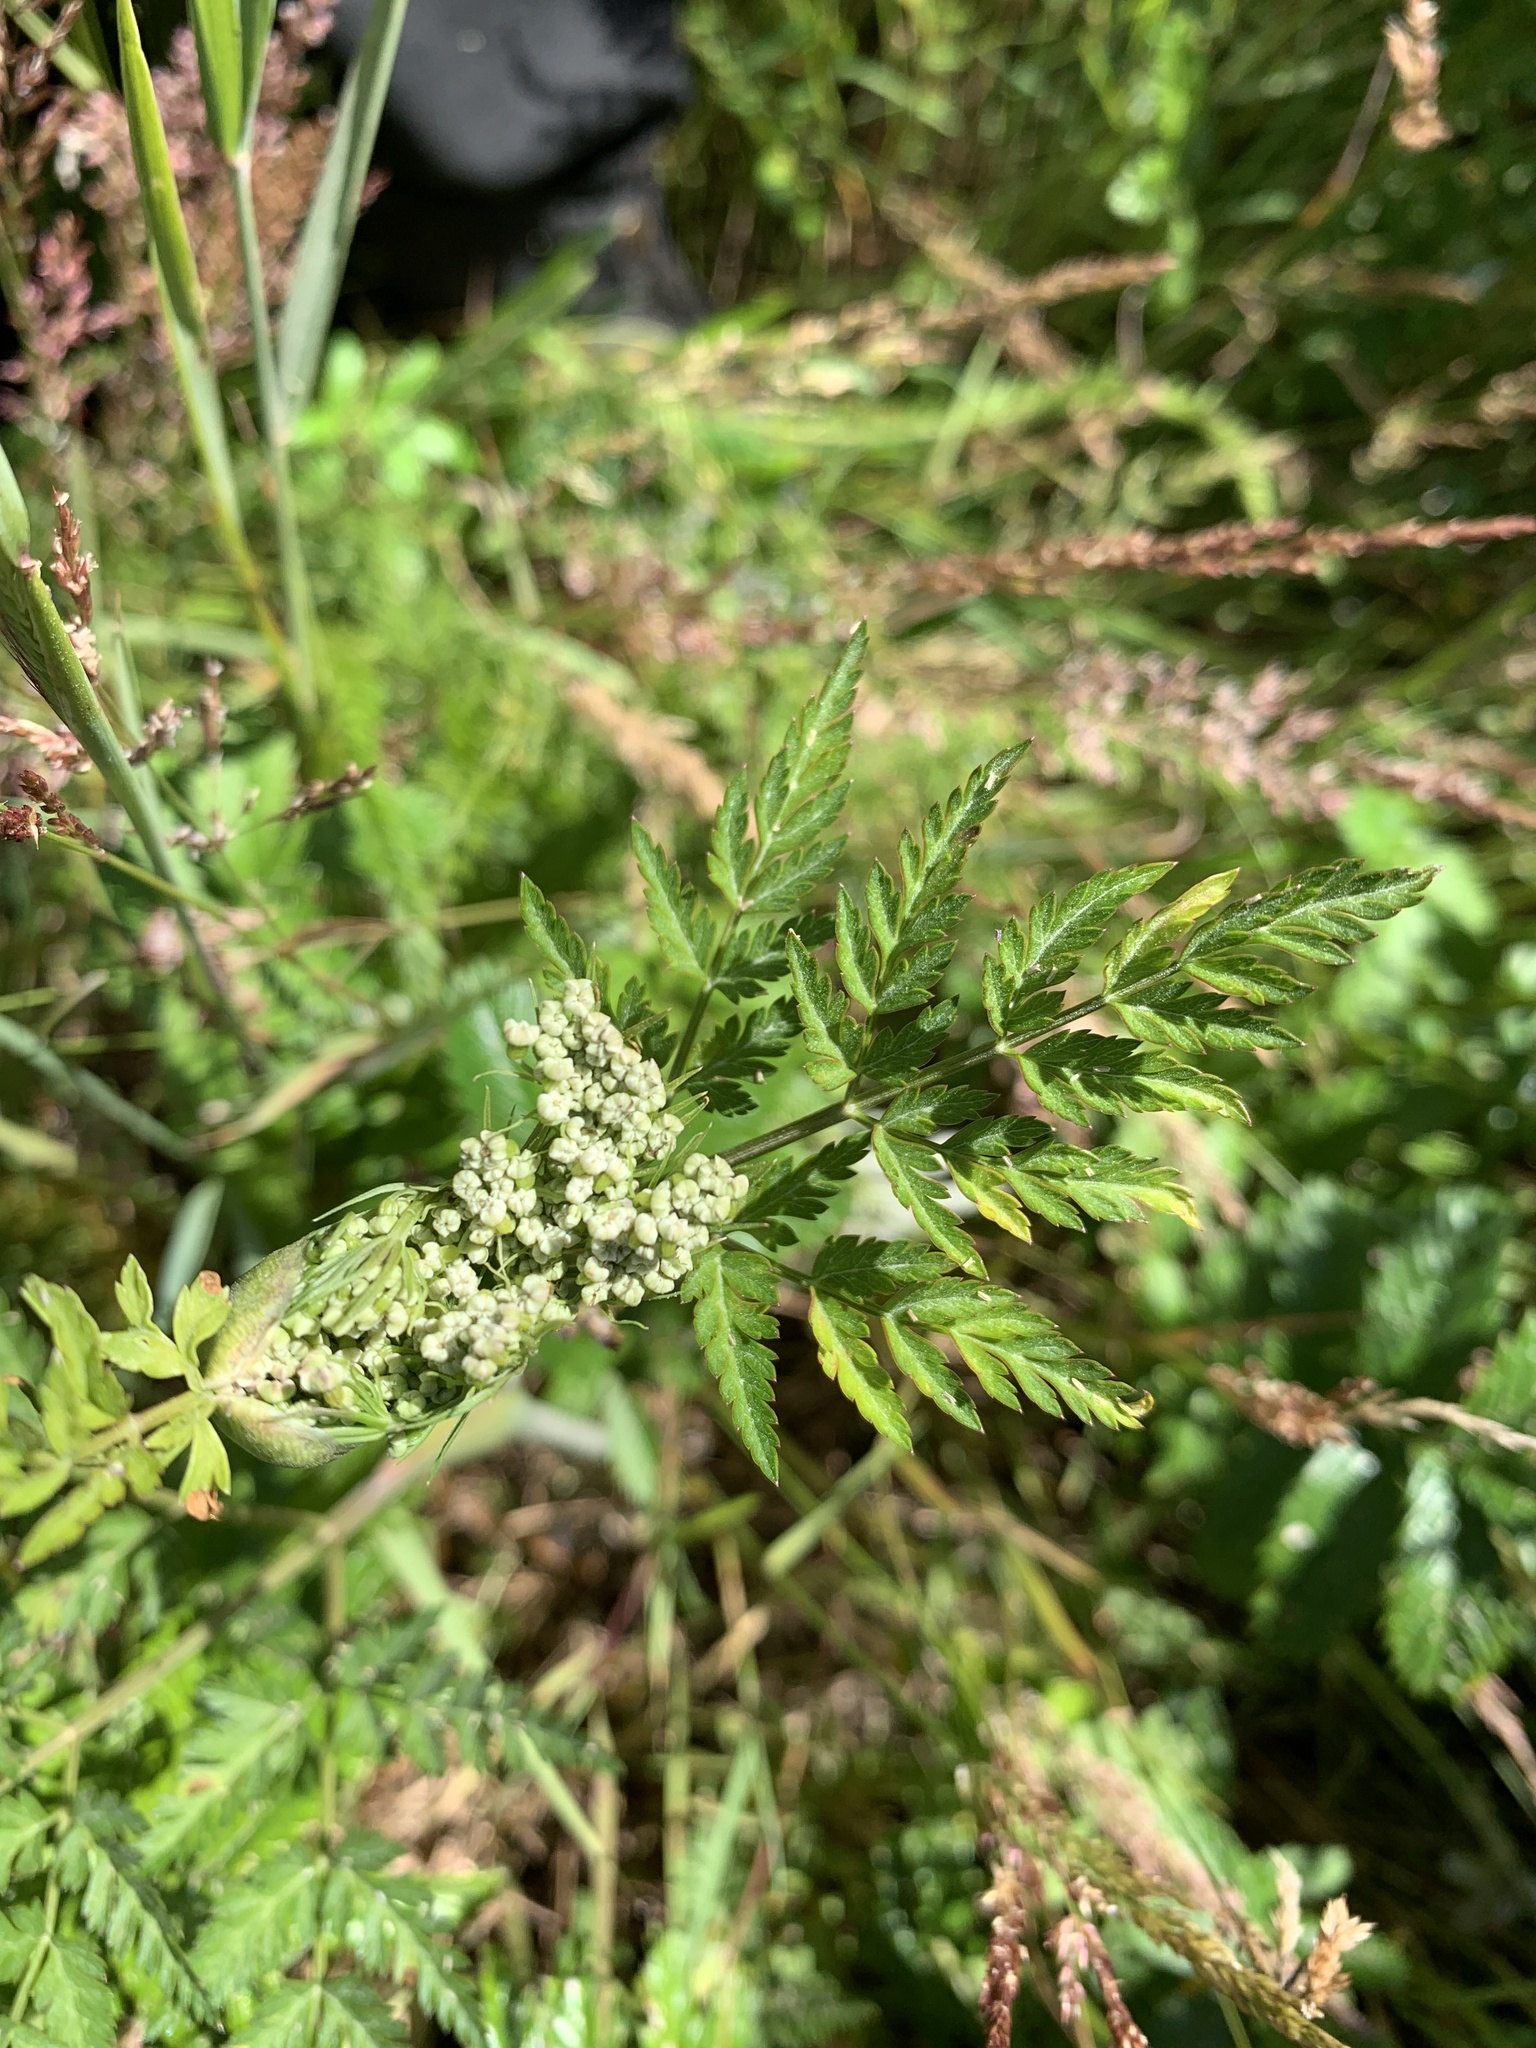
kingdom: Plantae
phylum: Tracheophyta
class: Magnoliopsida
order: Apiales
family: Apiaceae
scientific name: Apiaceae
